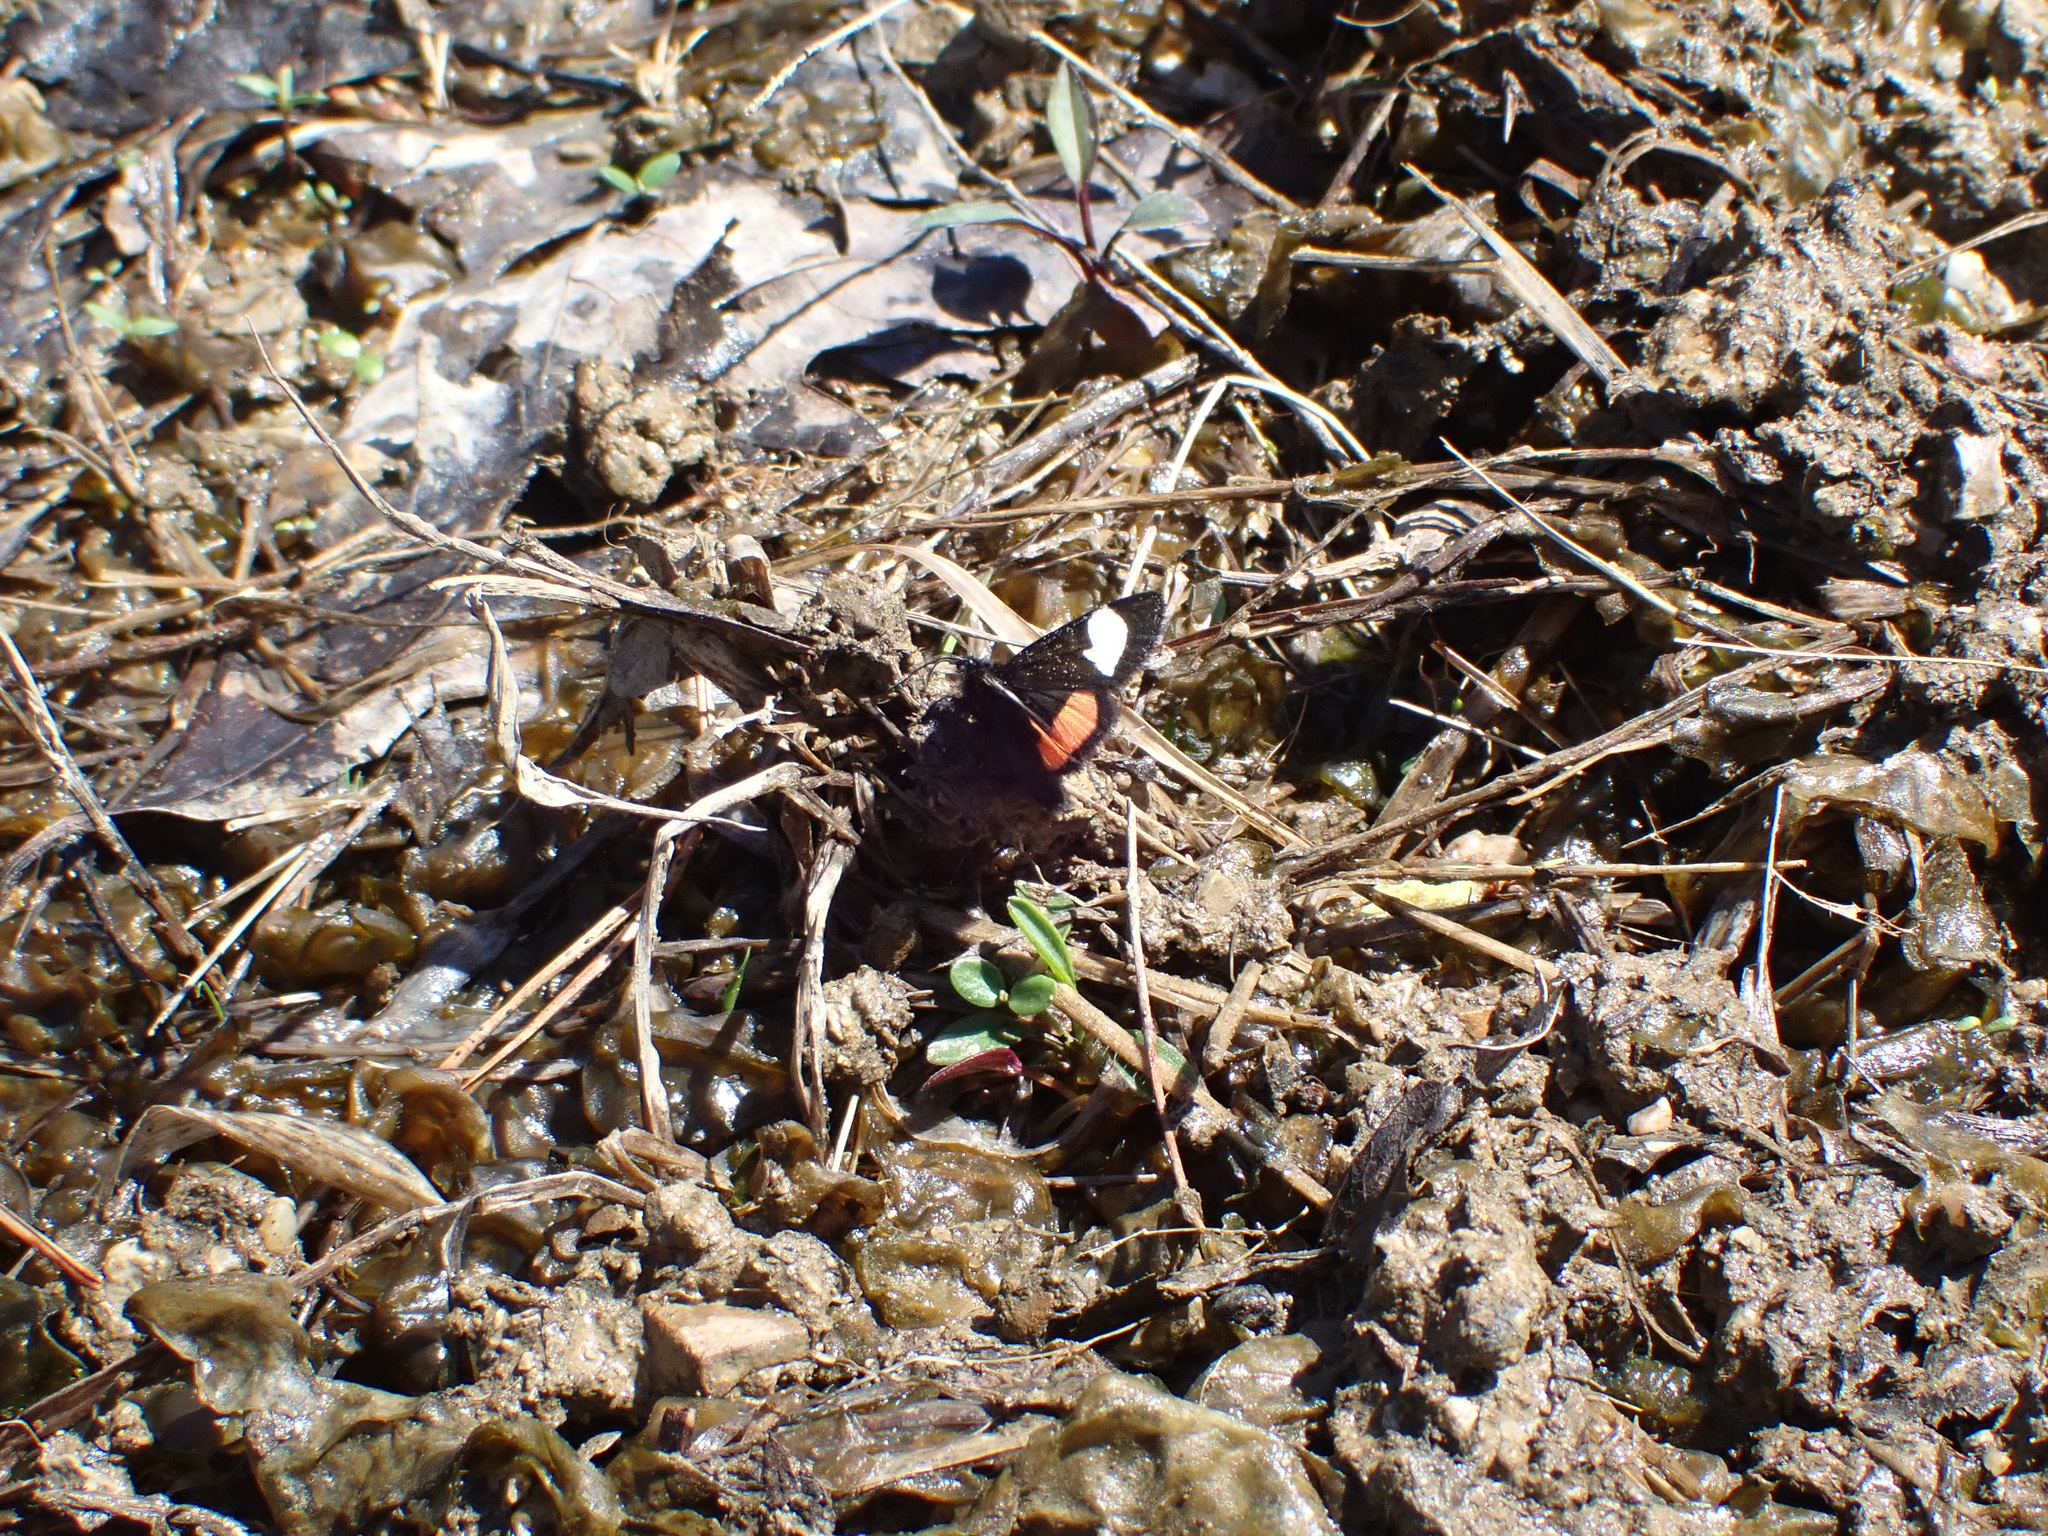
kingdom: Animalia
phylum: Arthropoda
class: Insecta
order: Lepidoptera
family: Noctuidae
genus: Psychomorpha
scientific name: Psychomorpha epimenis
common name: Grapevine epimenis moth
